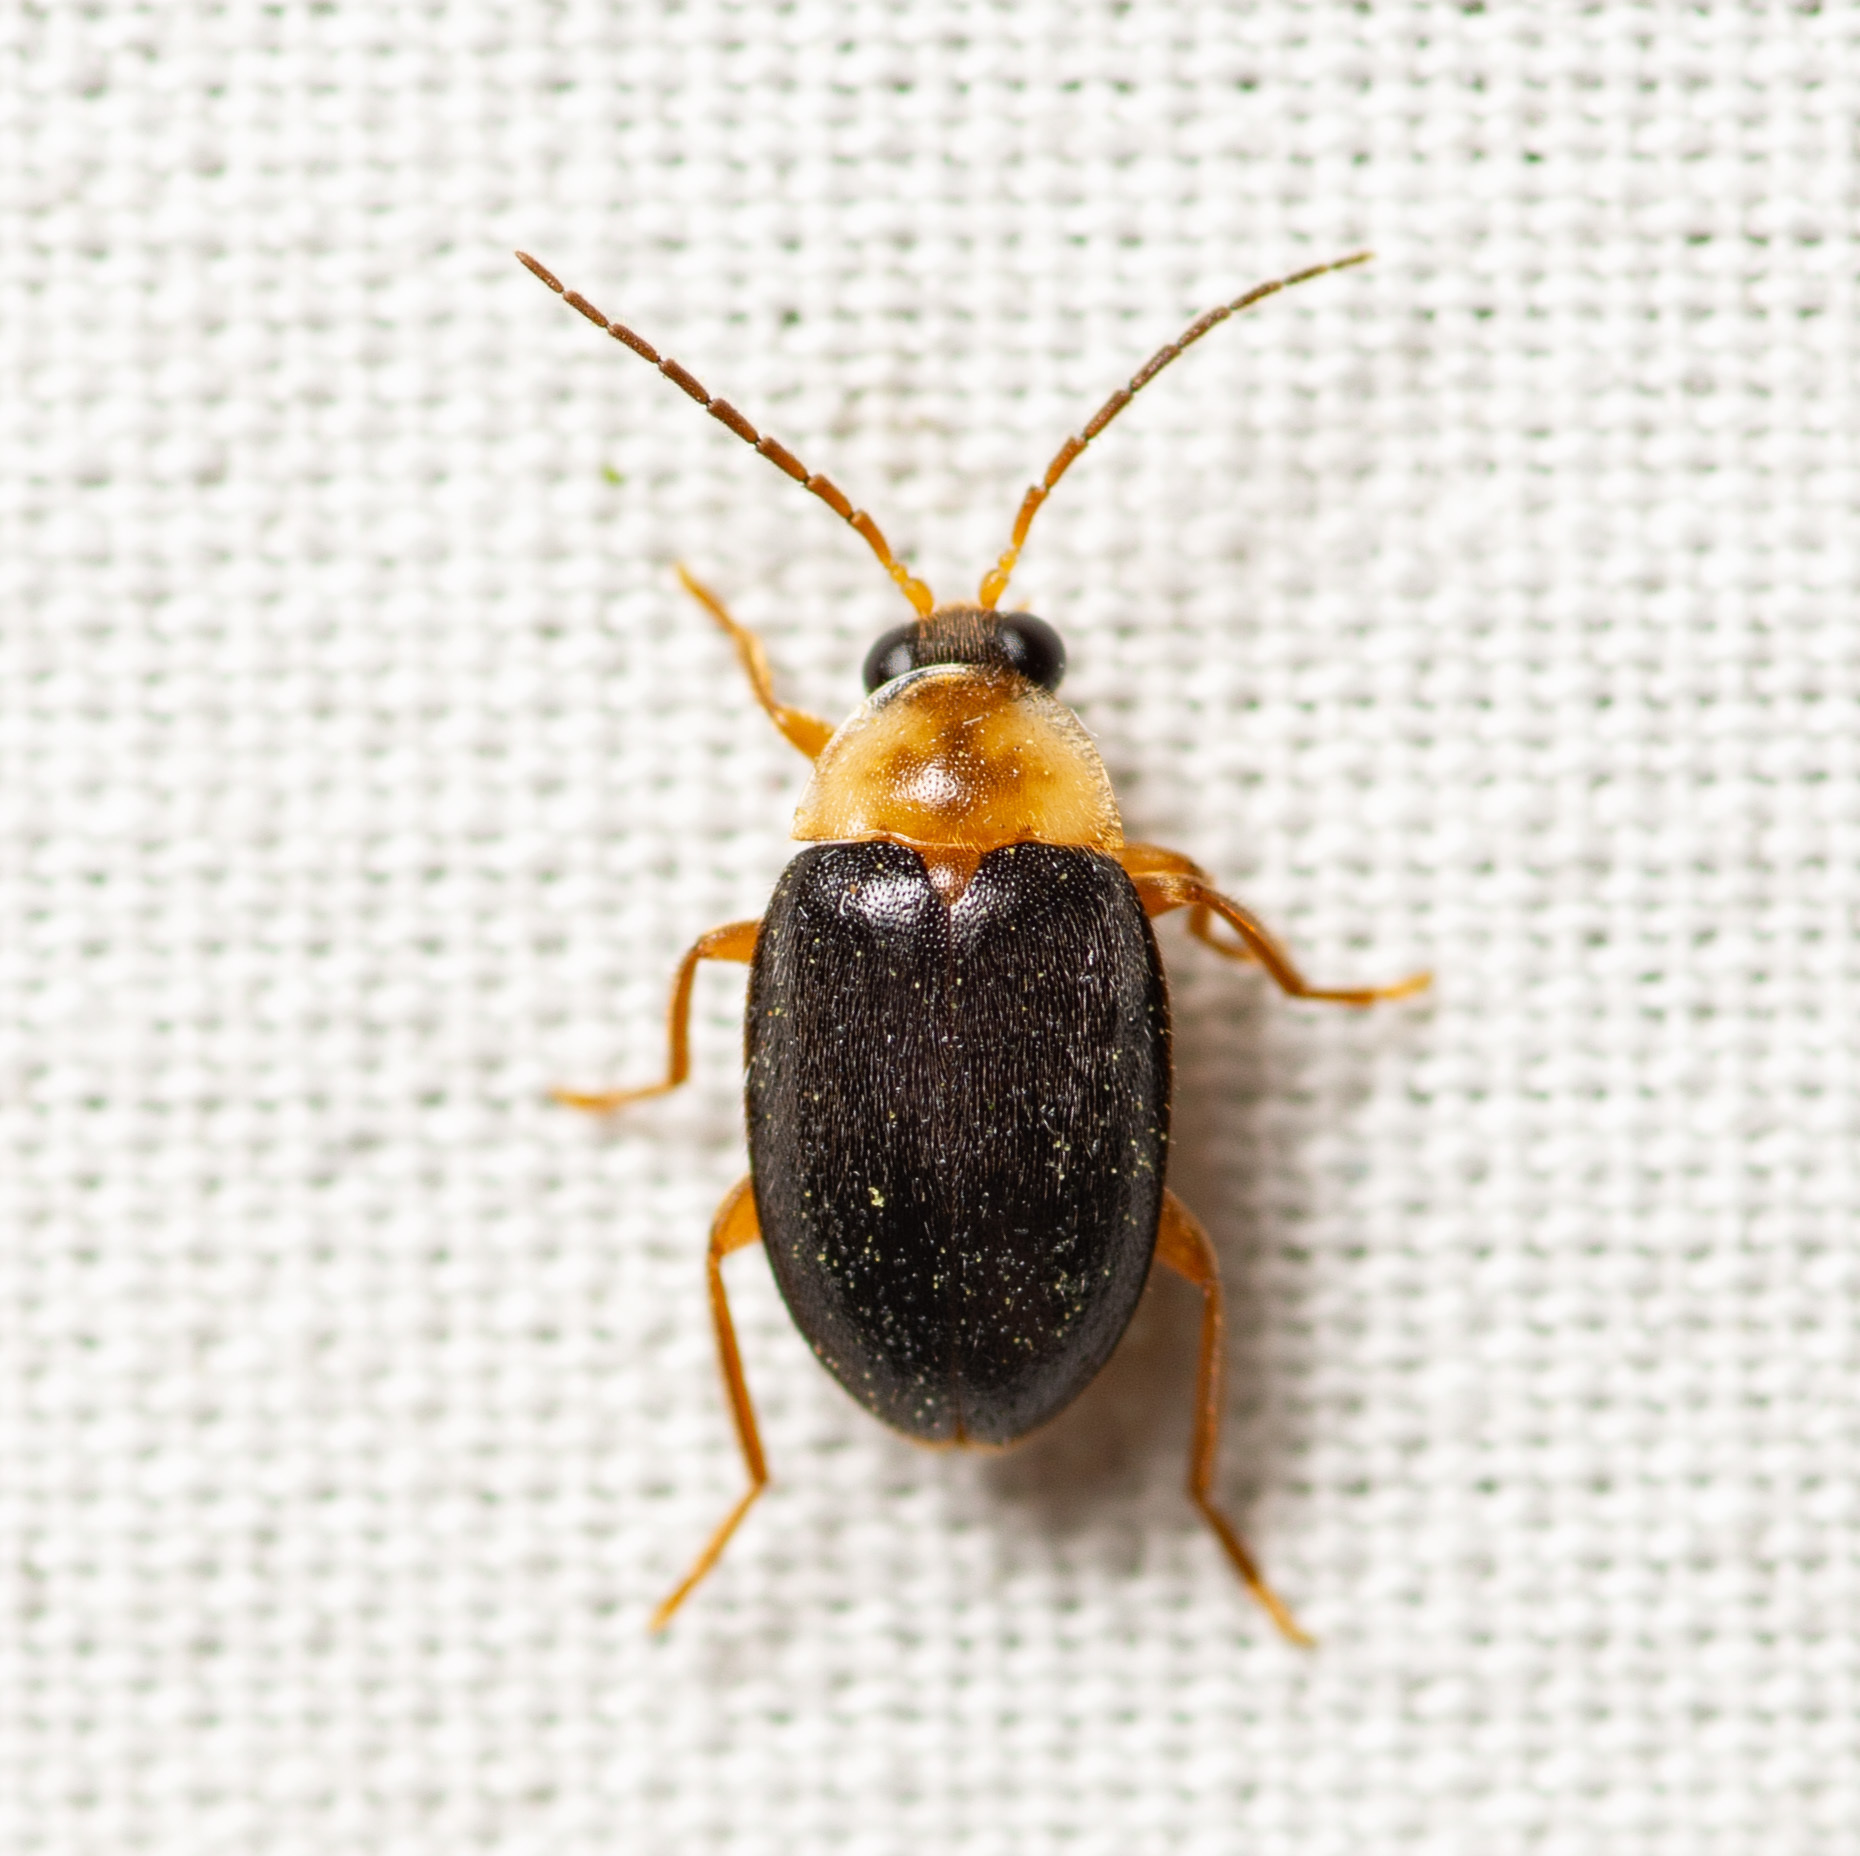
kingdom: Animalia
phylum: Arthropoda
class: Insecta
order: Coleoptera
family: Scirtidae
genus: Sacodes
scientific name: Sacodes pulchella
